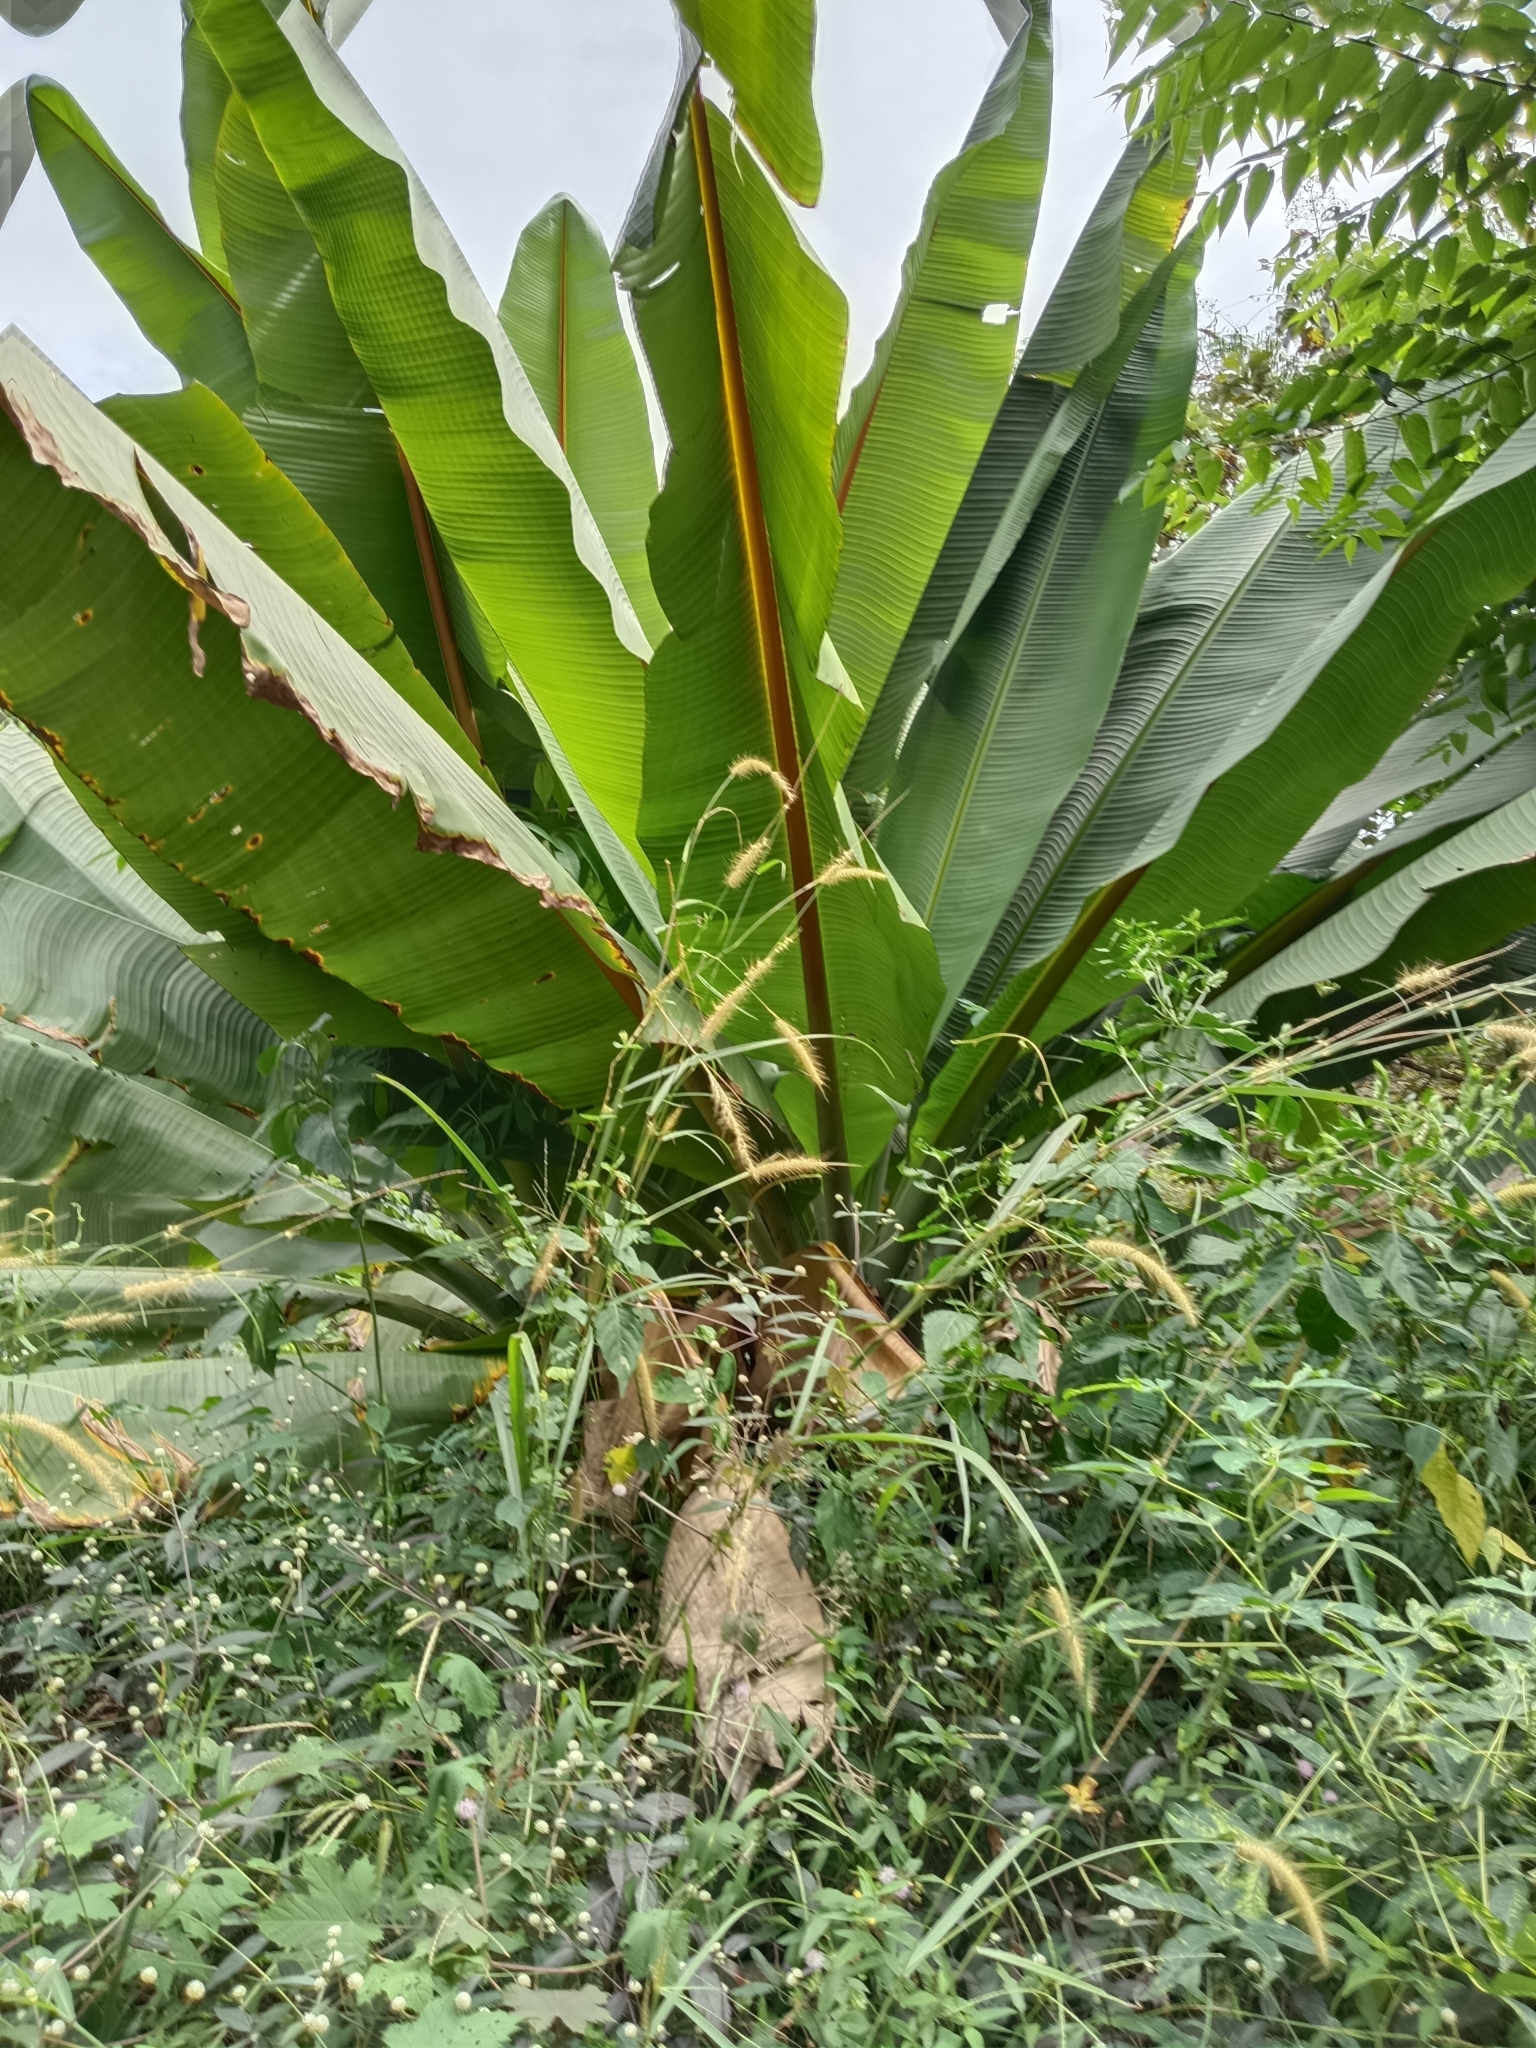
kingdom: Plantae
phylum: Tracheophyta
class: Liliopsida
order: Zingiberales
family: Musaceae
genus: Ensete
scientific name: Ensete superbum
